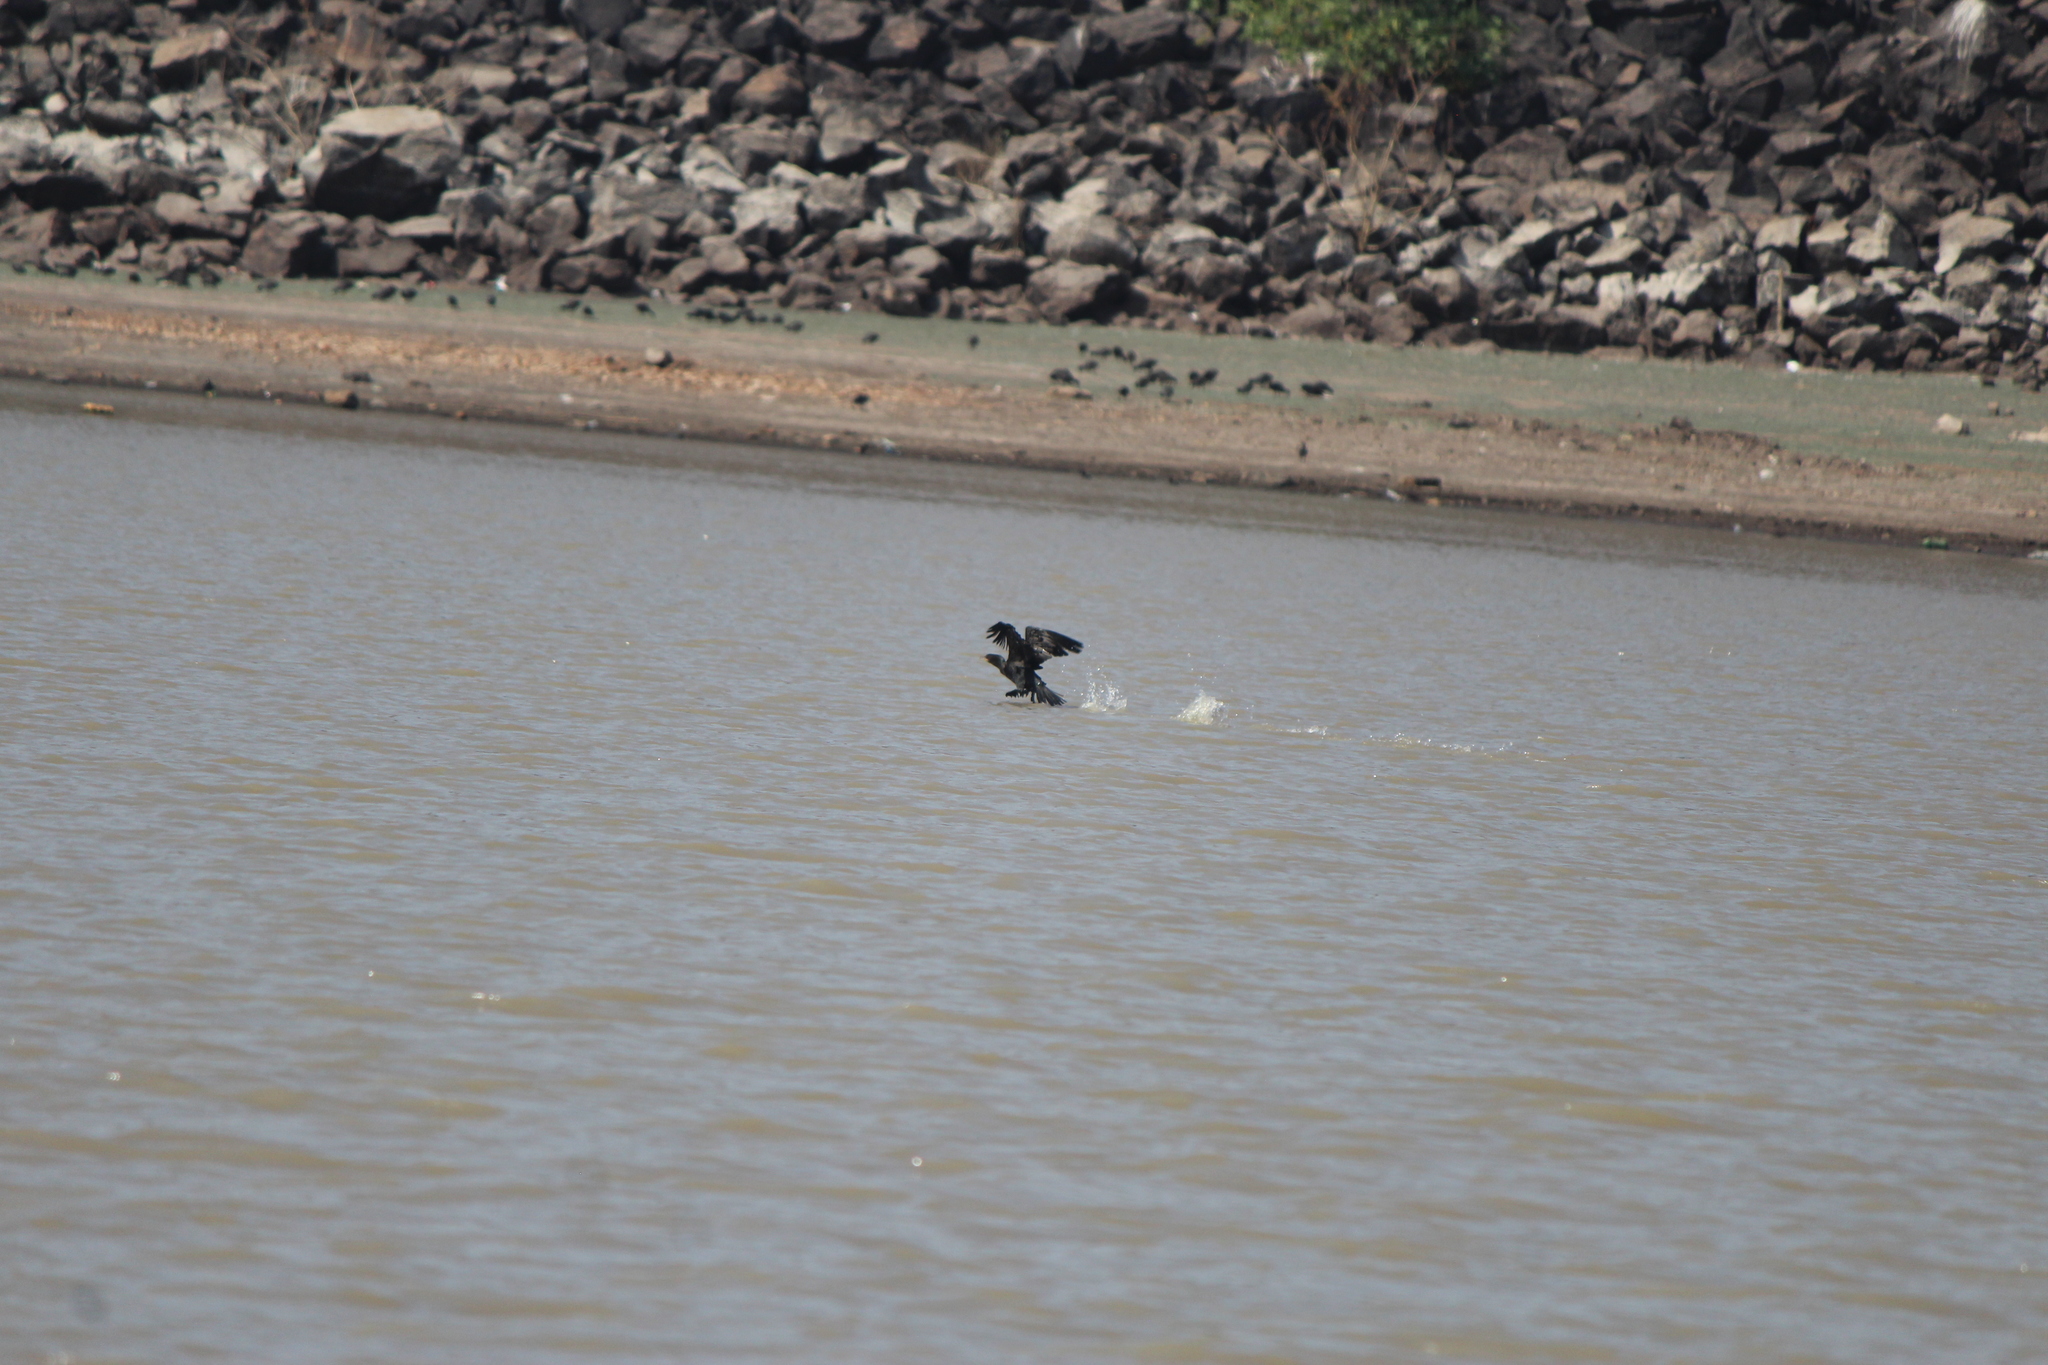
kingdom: Animalia
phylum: Chordata
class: Aves
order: Suliformes
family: Phalacrocoracidae
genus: Phalacrocorax
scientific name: Phalacrocorax auritus
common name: Double-crested cormorant
